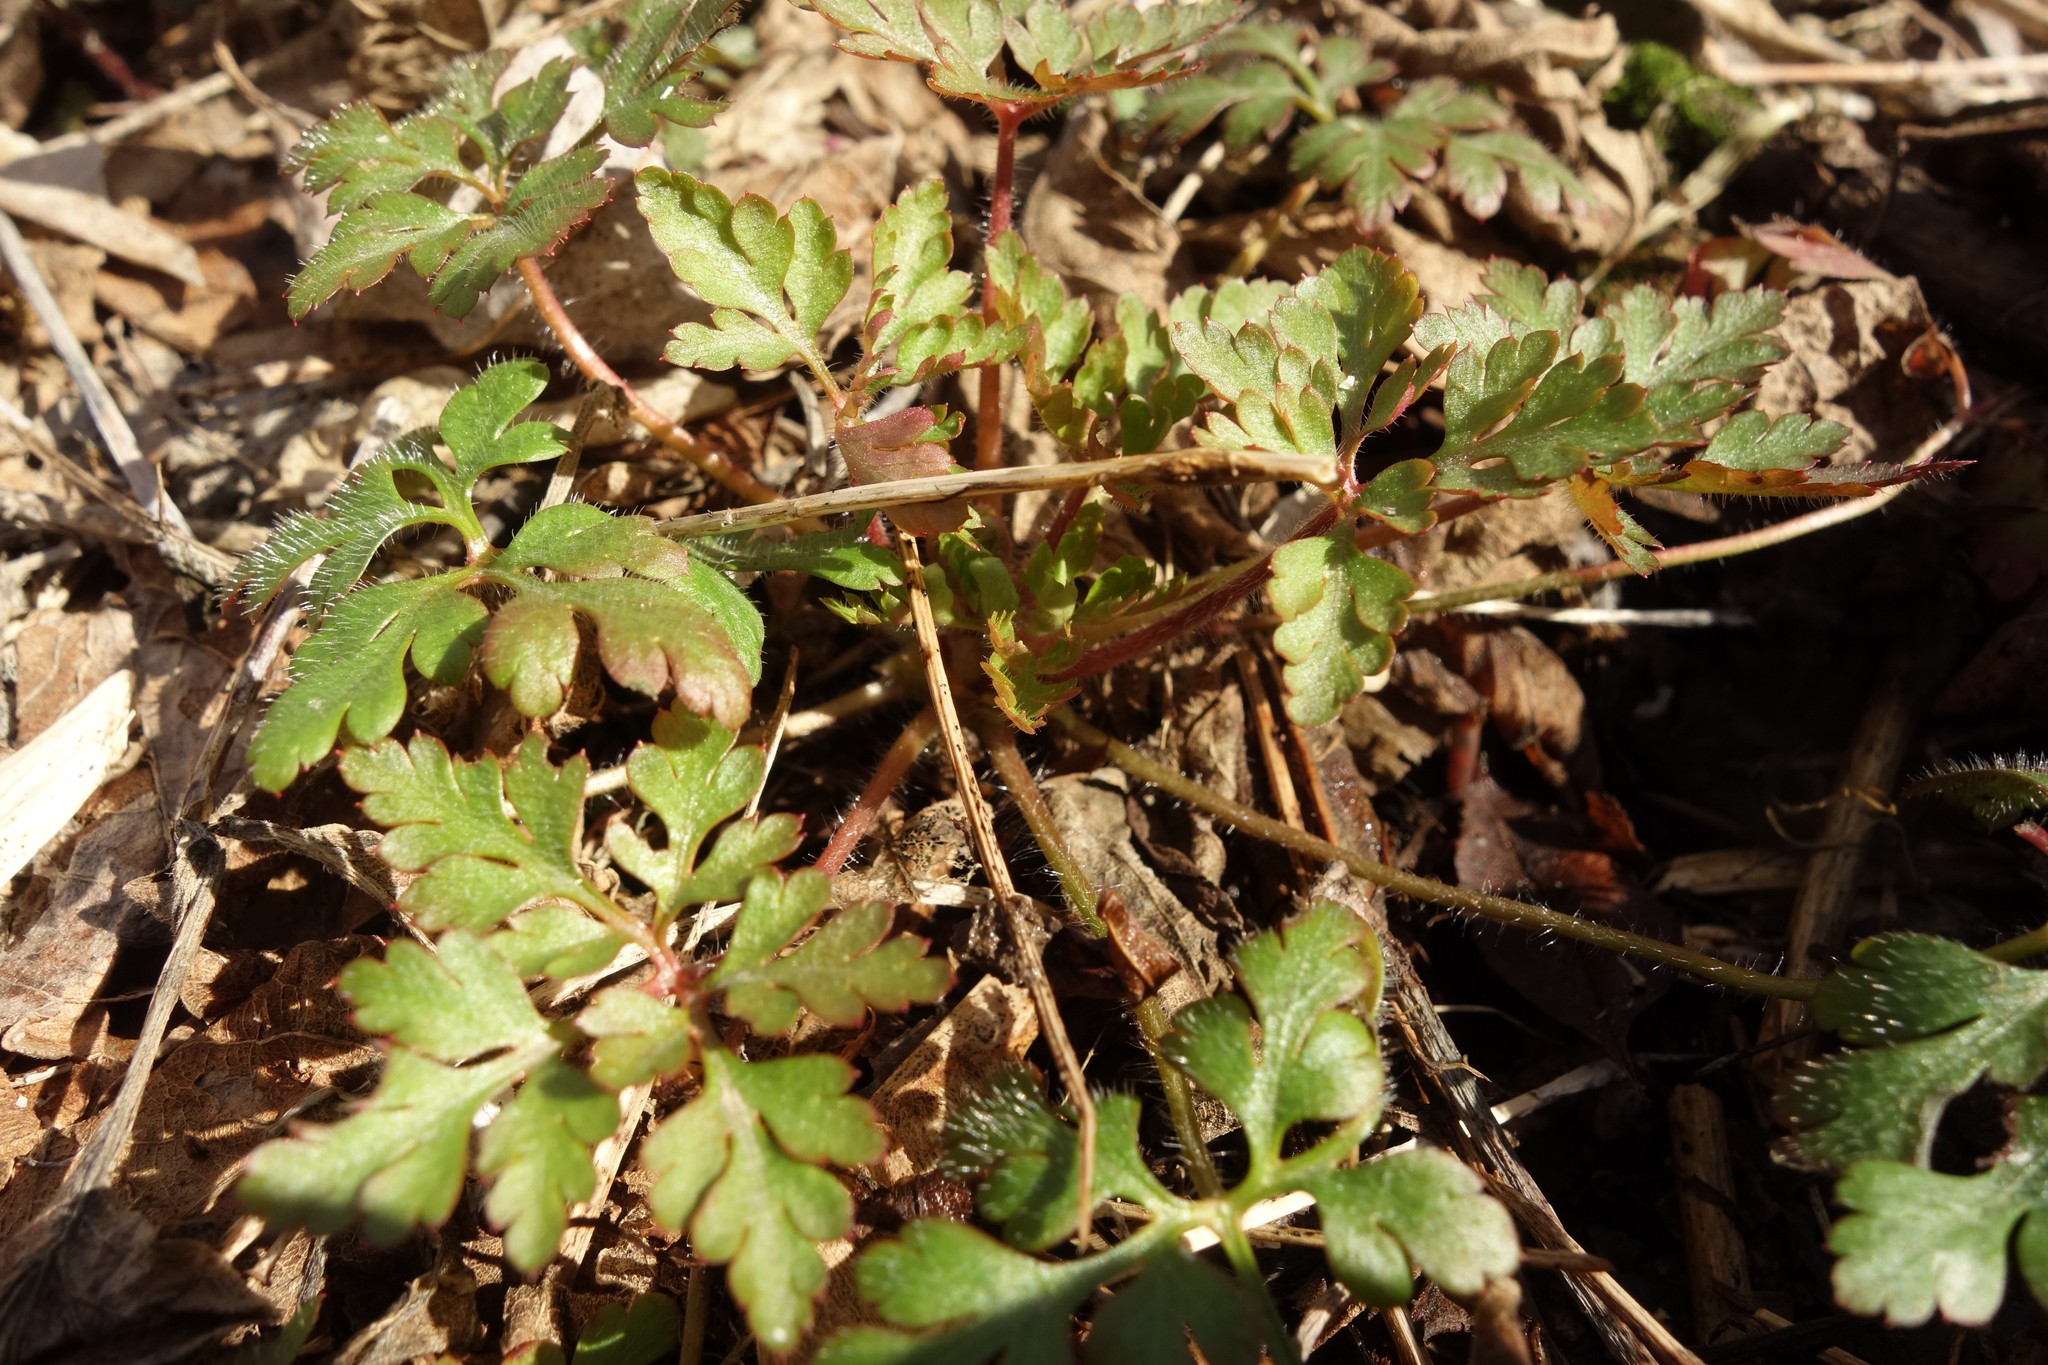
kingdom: Plantae
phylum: Tracheophyta
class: Magnoliopsida
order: Geraniales
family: Geraniaceae
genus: Geranium
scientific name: Geranium robertianum
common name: Herb-robert
